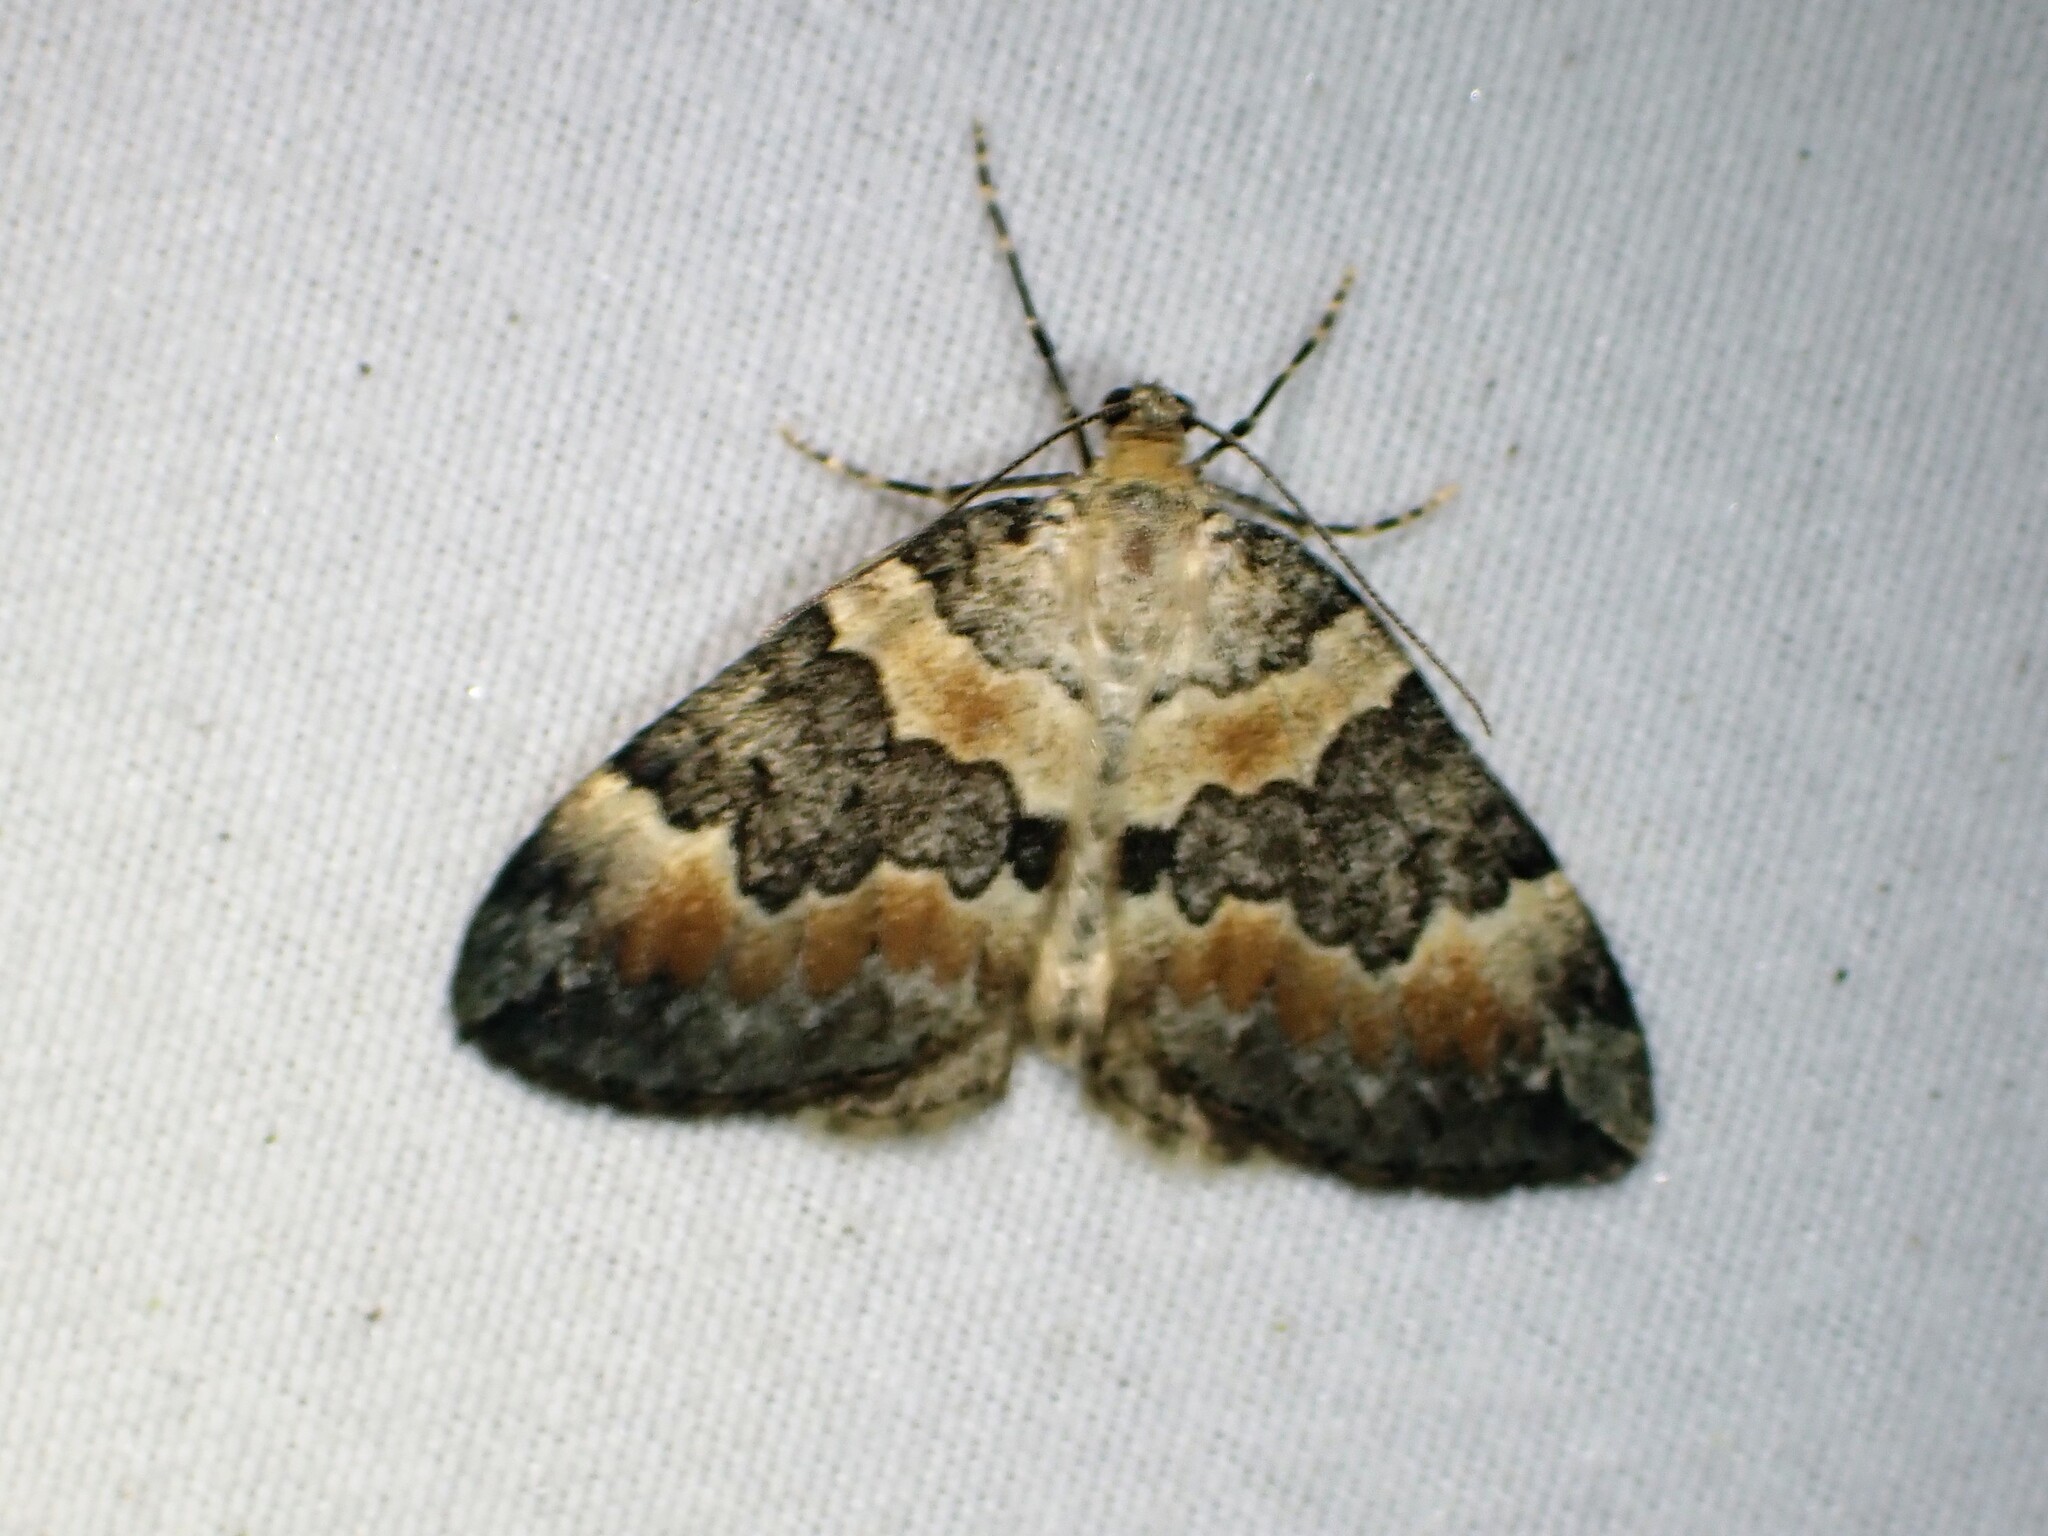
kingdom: Animalia
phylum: Arthropoda
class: Insecta
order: Lepidoptera
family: Geometridae
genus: Dysstroma
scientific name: Dysstroma brunneata
